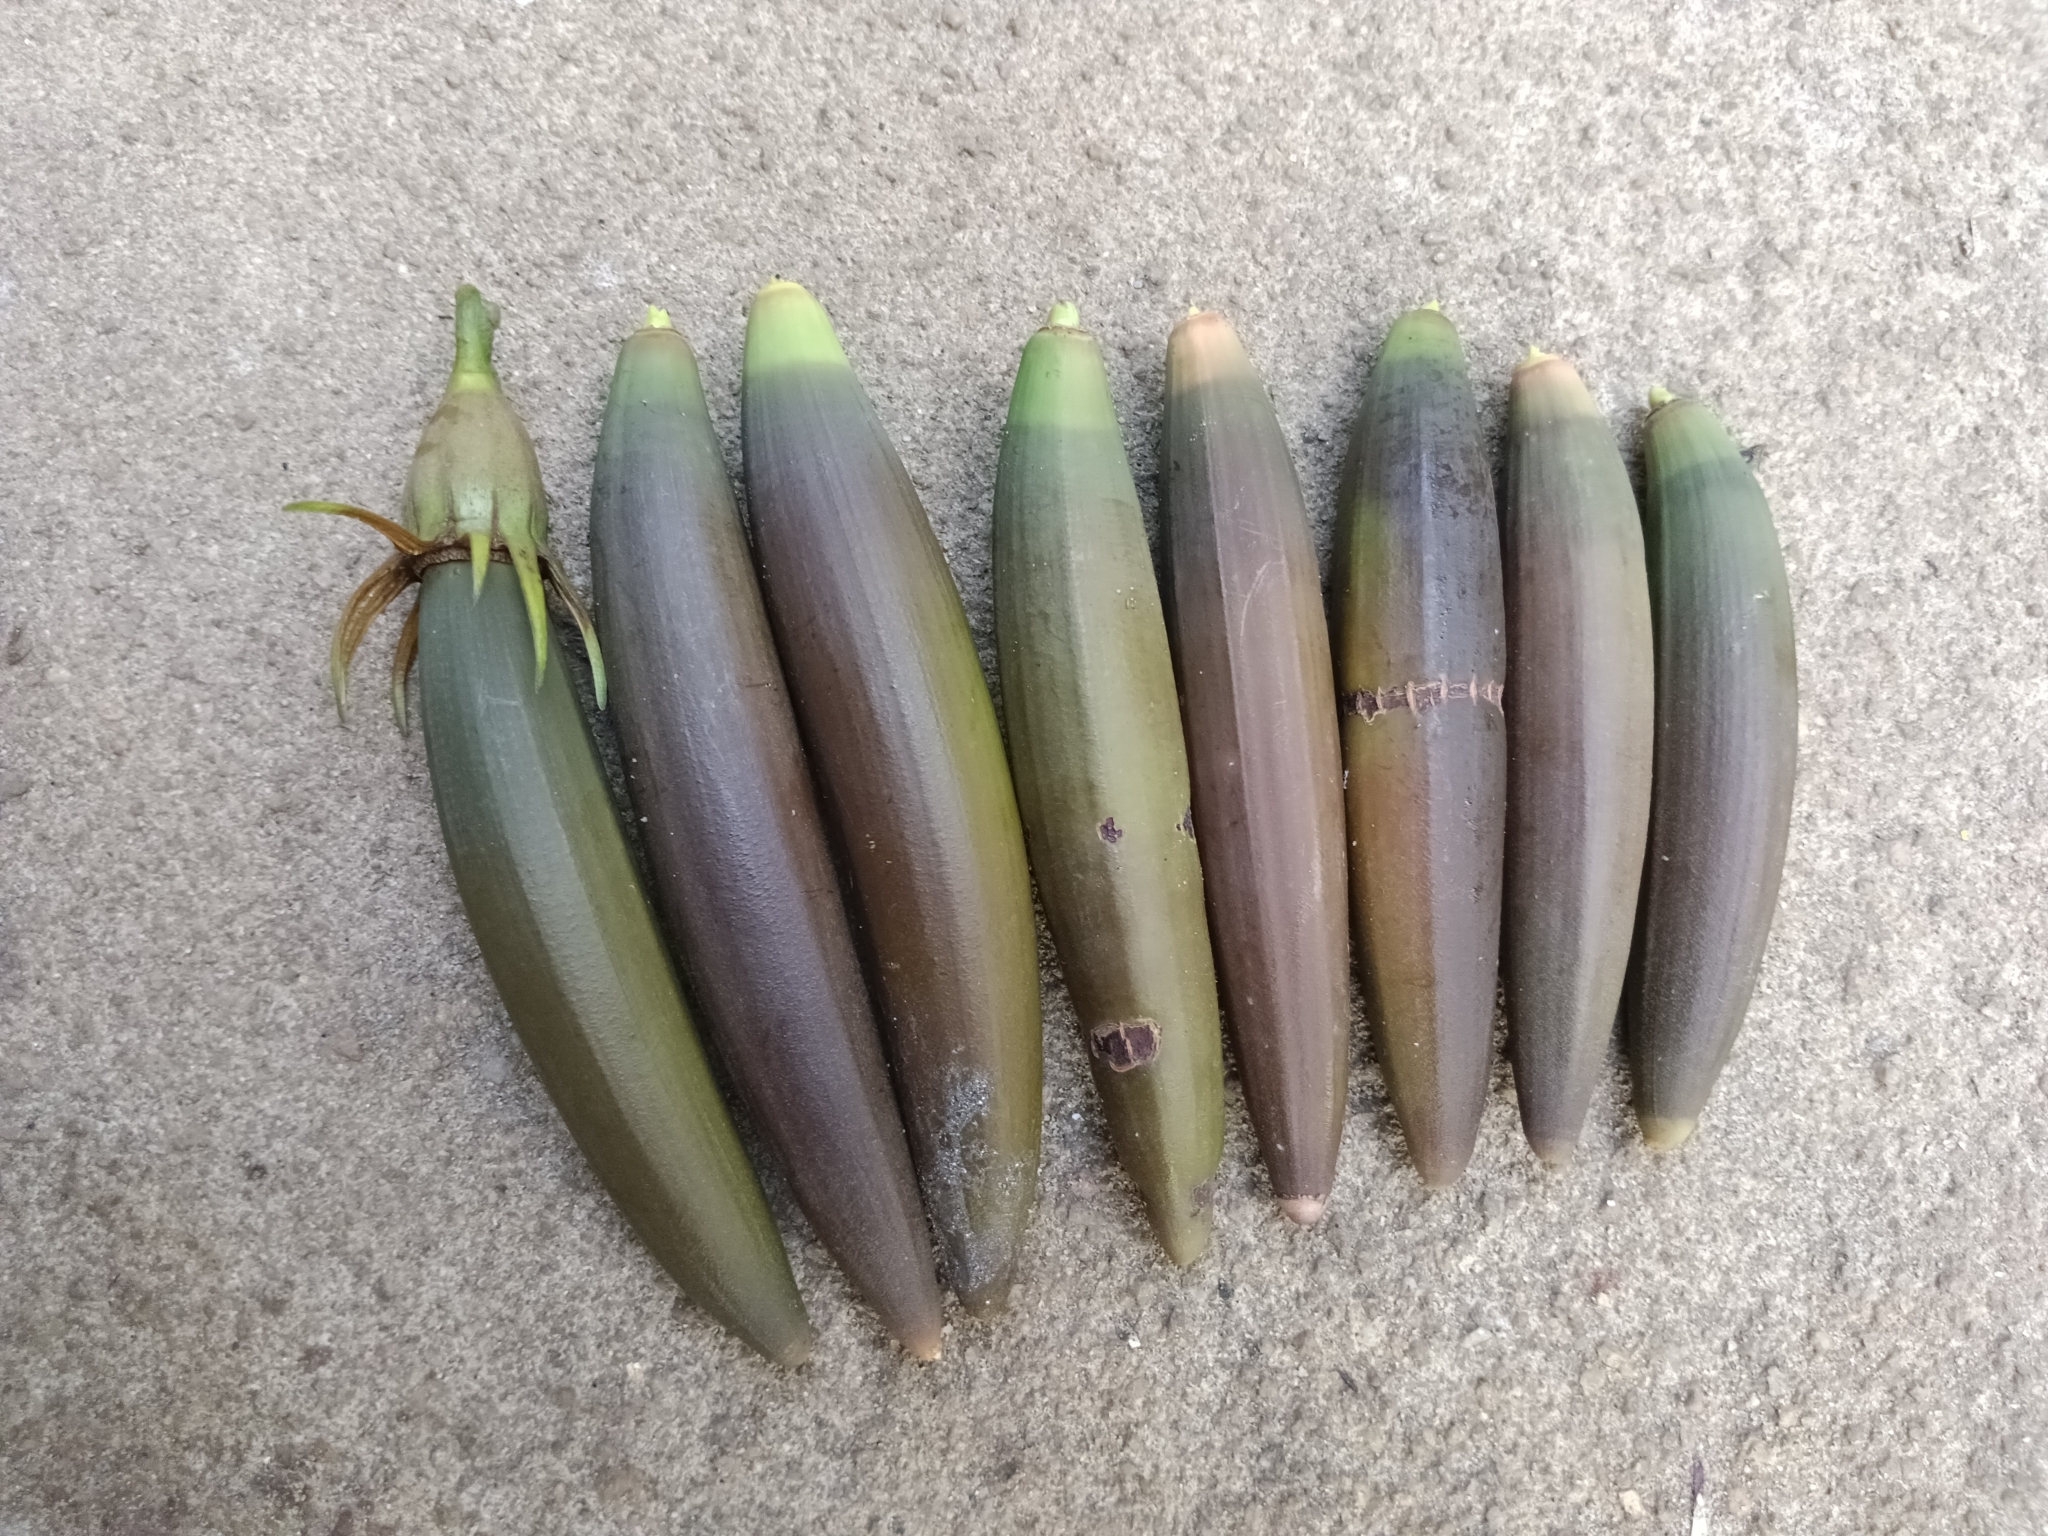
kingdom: Plantae
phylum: Tracheophyta
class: Magnoliopsida
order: Malpighiales
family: Rhizophoraceae
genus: Bruguiera
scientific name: Bruguiera gymnorhiza
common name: Oriental mangrove
